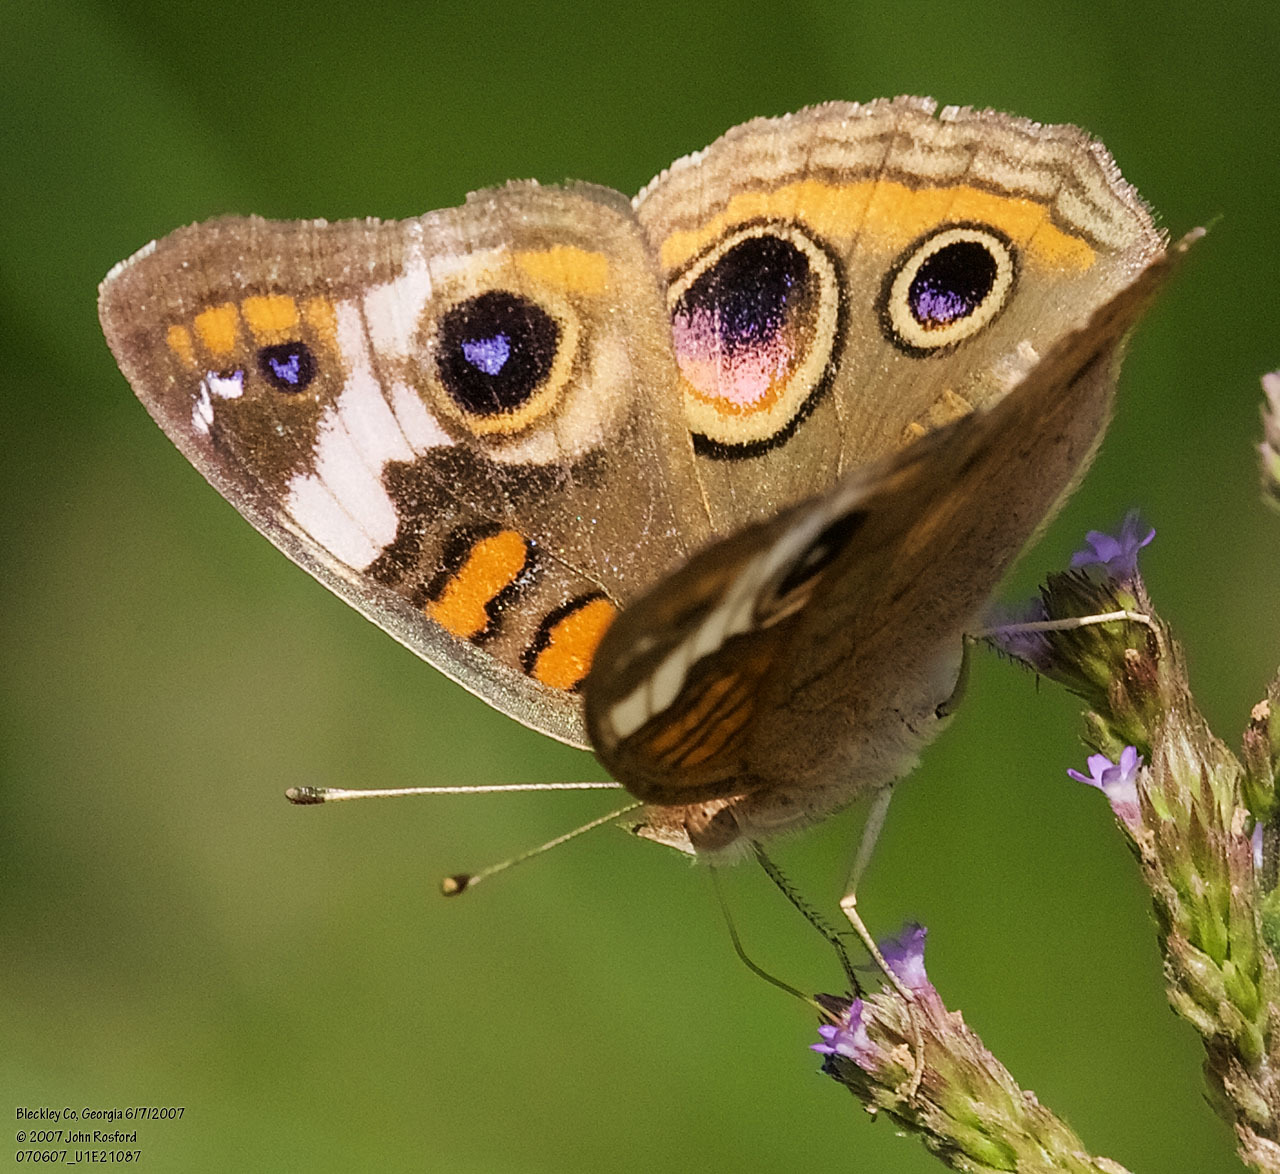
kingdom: Animalia
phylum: Arthropoda
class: Insecta
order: Lepidoptera
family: Nymphalidae
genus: Junonia
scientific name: Junonia coenia
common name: Common buckeye
